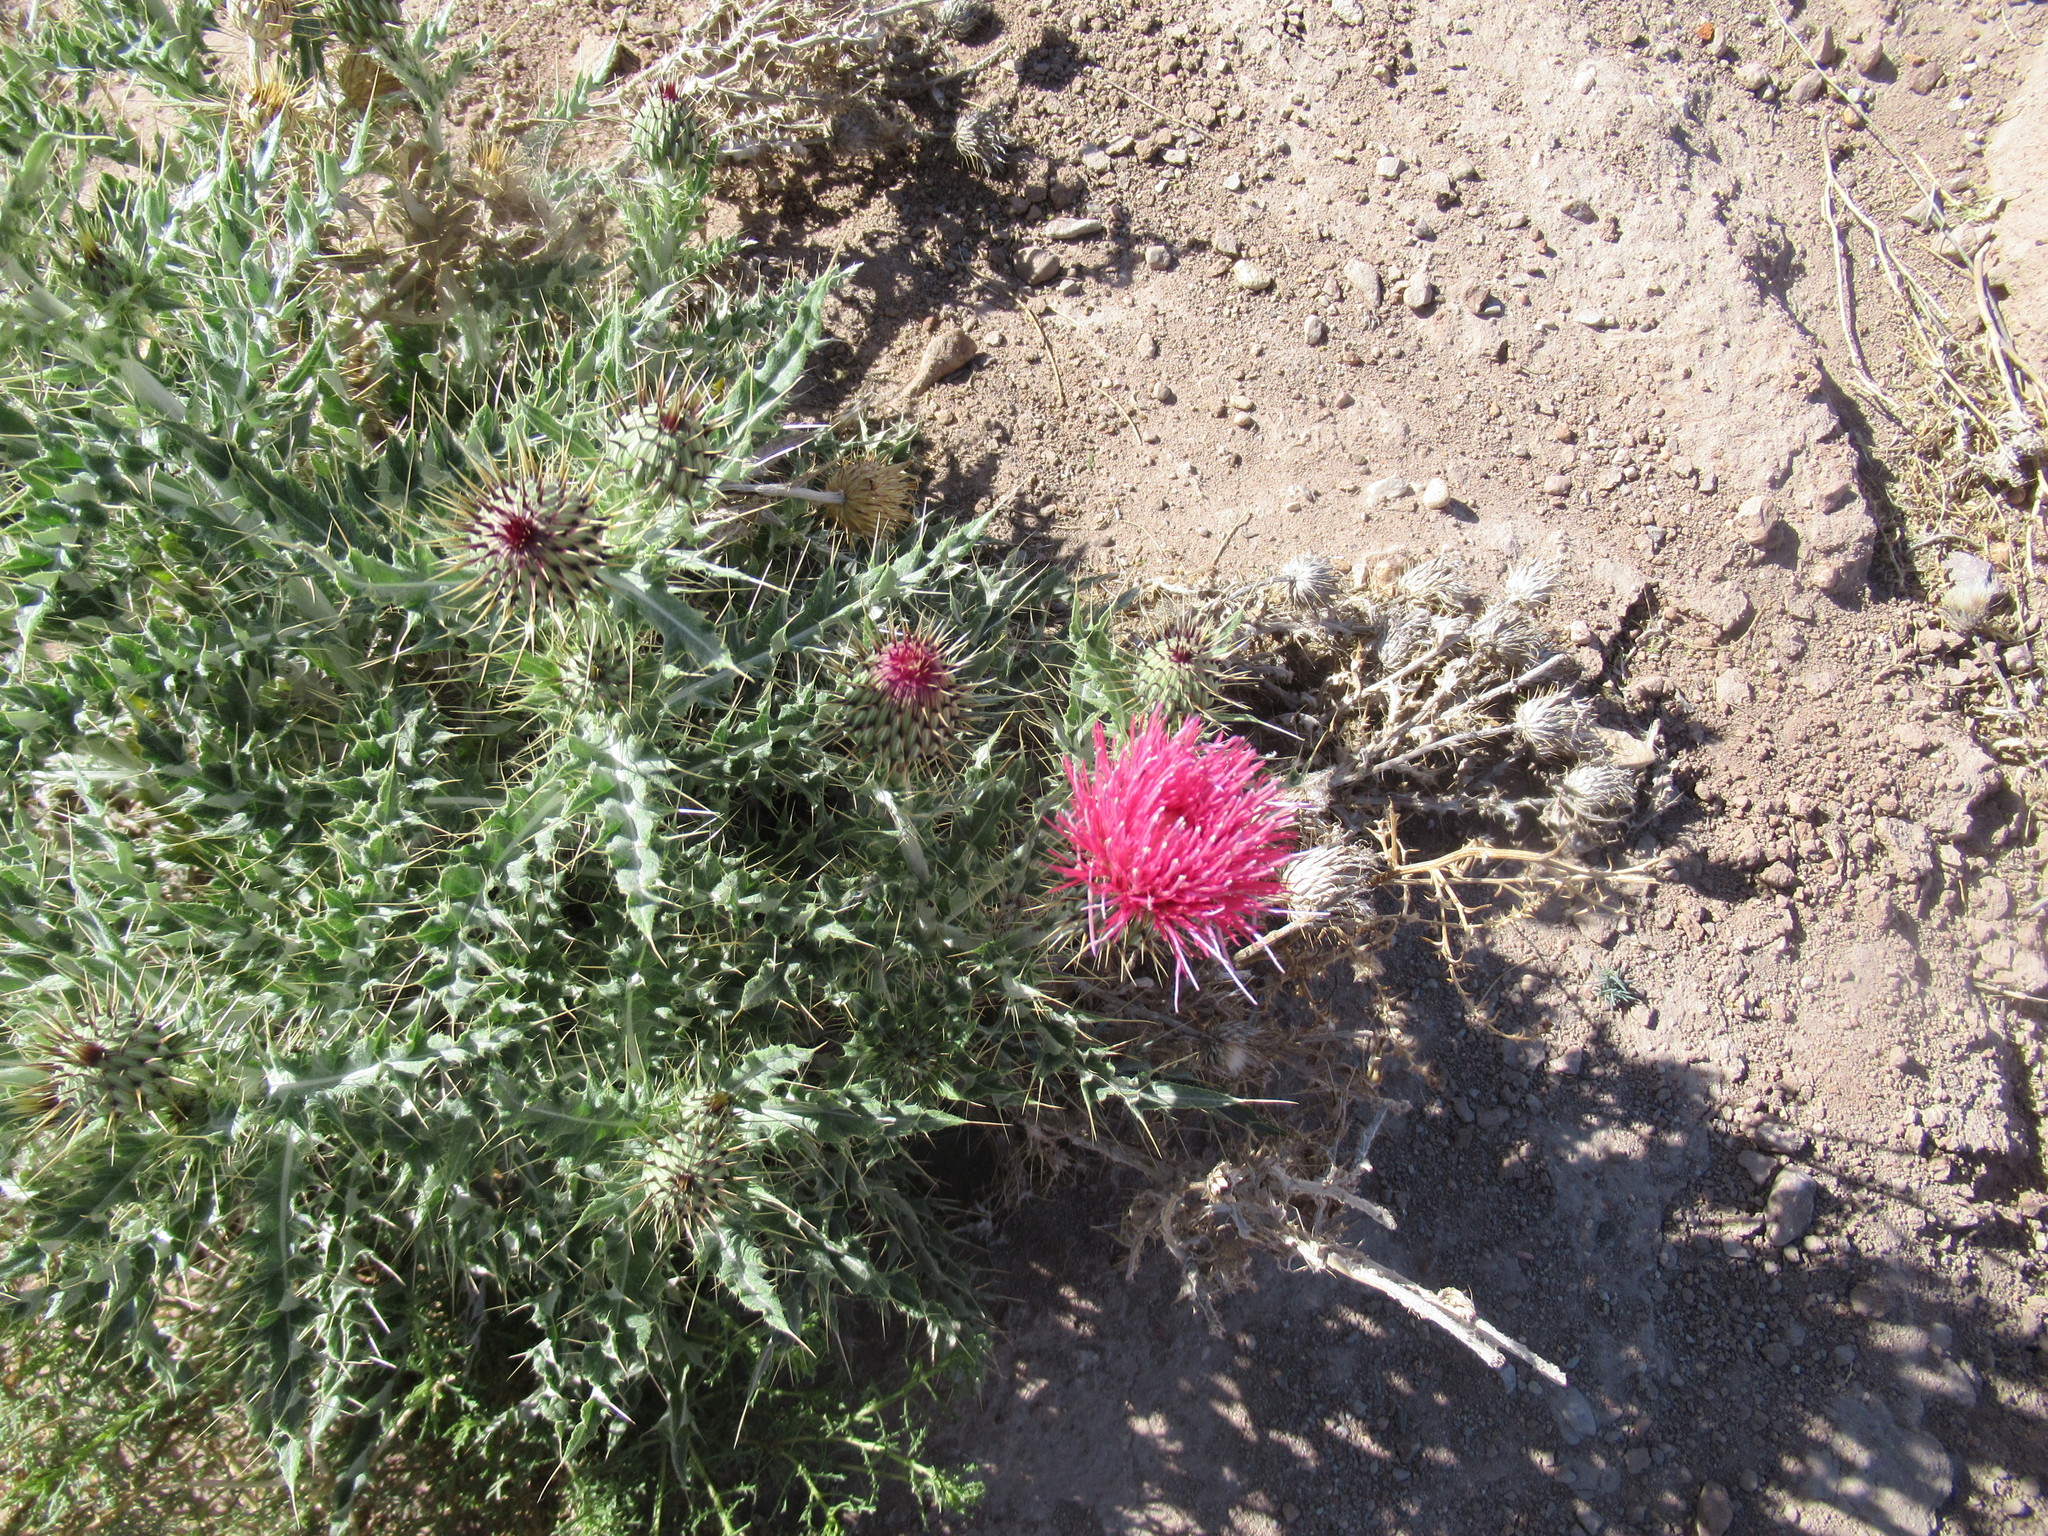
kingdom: Plantae
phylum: Tracheophyta
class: Magnoliopsida
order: Asterales
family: Asteraceae
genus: Cirsium
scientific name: Cirsium arizonicum
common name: Arizona thistle
